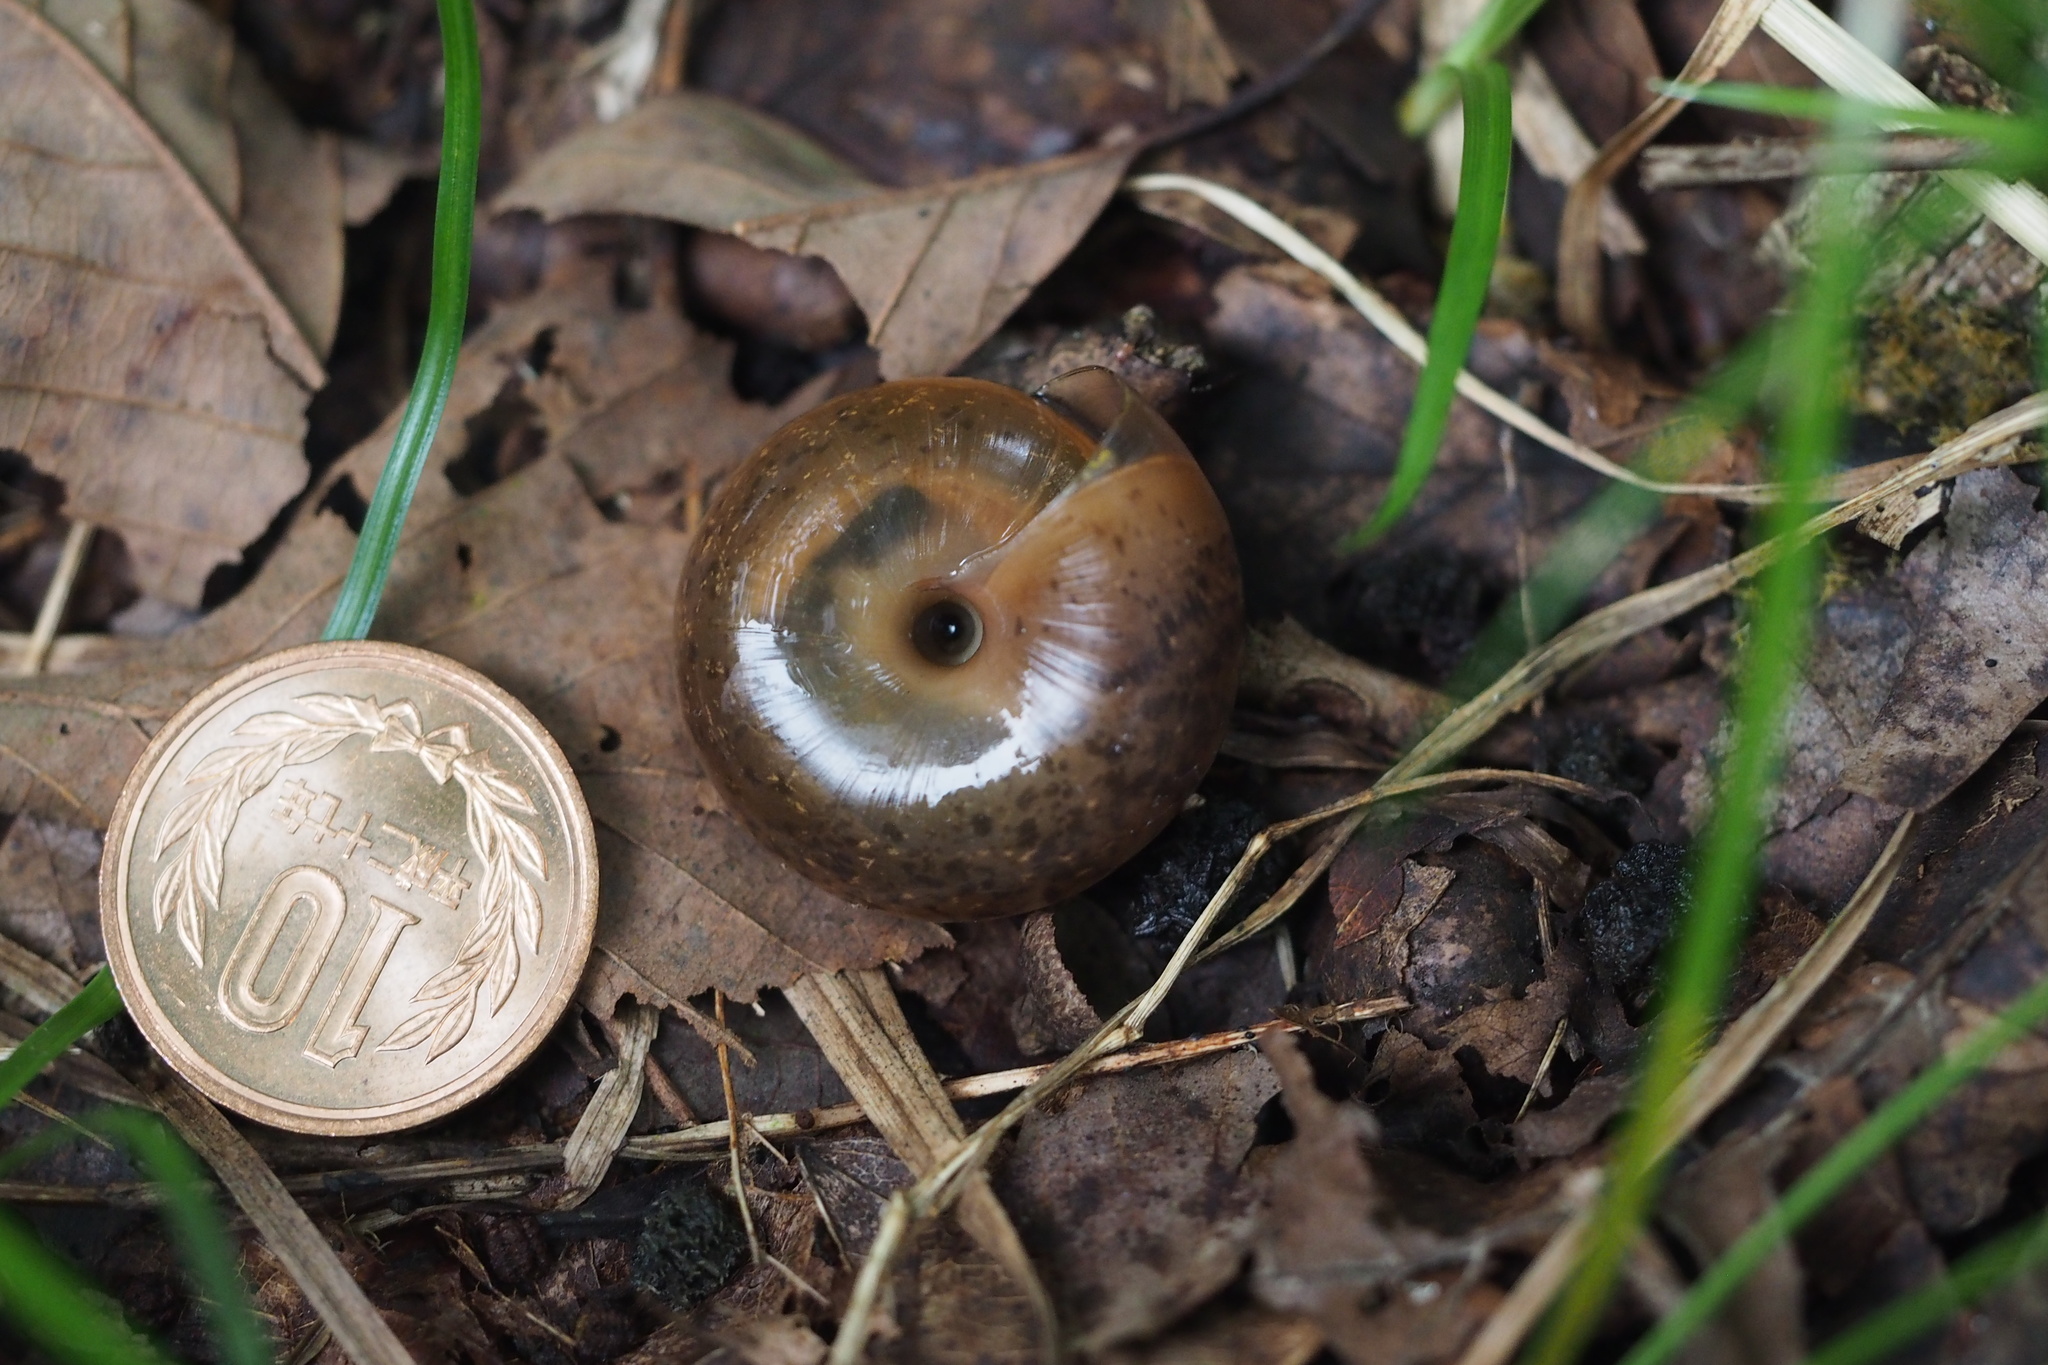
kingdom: Animalia
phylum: Mollusca
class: Gastropoda
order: Stylommatophora
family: Camaenidae
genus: Satsuma
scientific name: Satsuma moellendorffiana
